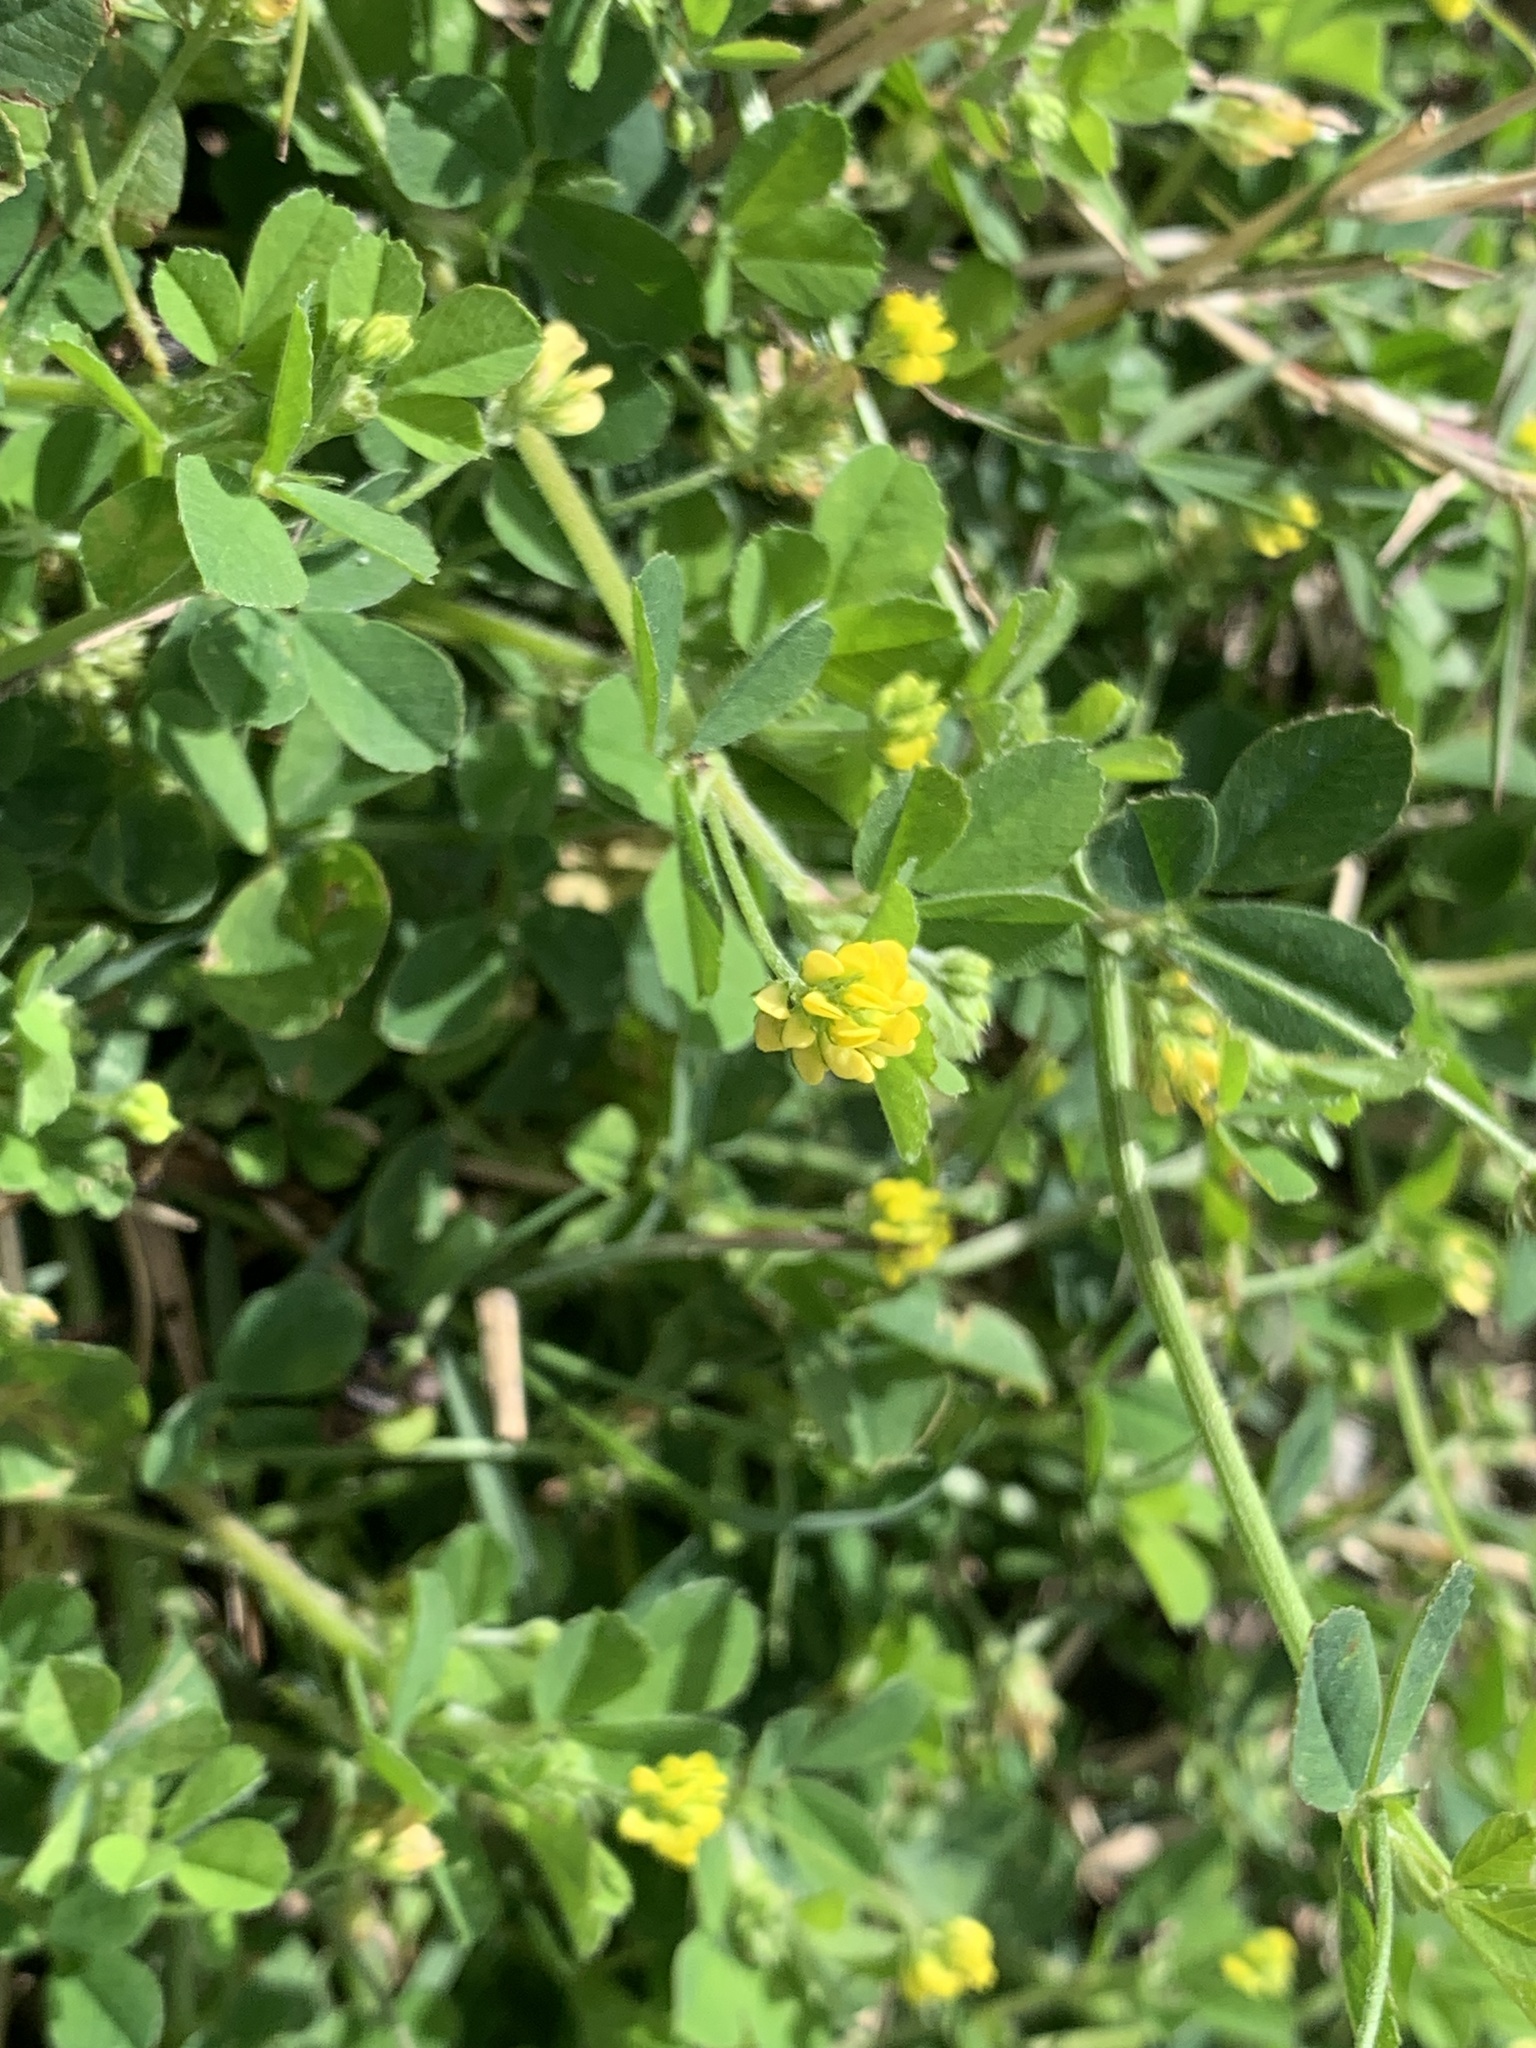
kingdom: Plantae
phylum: Tracheophyta
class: Magnoliopsida
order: Fabales
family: Fabaceae
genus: Medicago
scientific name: Medicago lupulina
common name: Black medick
